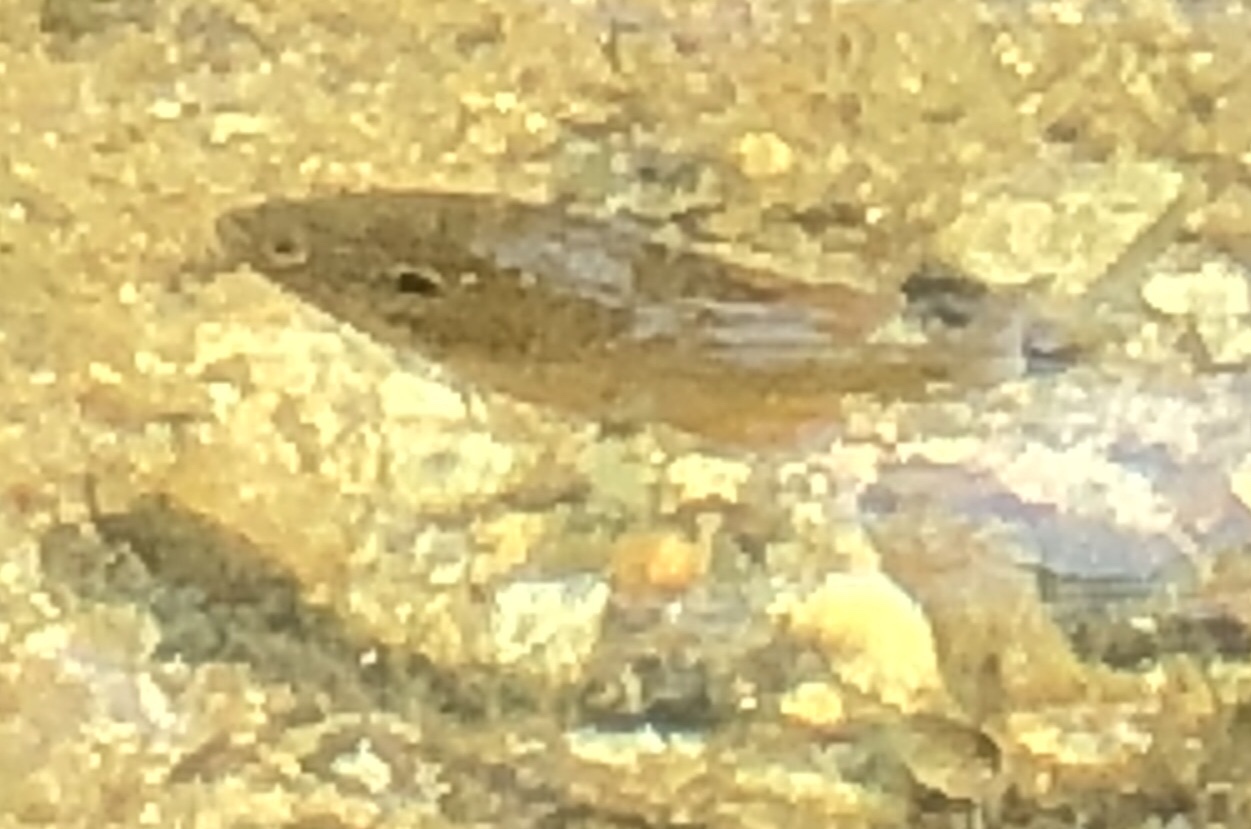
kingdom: Animalia
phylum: Chordata
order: Perciformes
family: Centrarchidae
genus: Lepomis
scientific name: Lepomis
